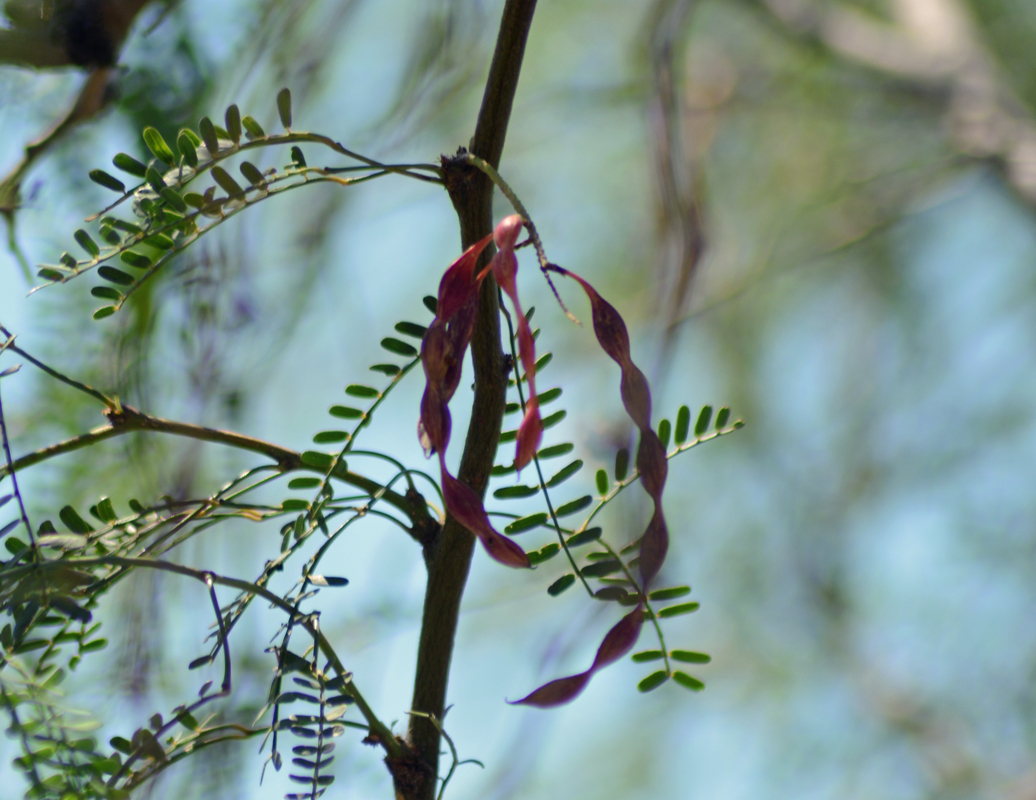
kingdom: Plantae
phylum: Tracheophyta
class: Magnoliopsida
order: Fabales
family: Fabaceae
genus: Prosopis
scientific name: Prosopis articulata
